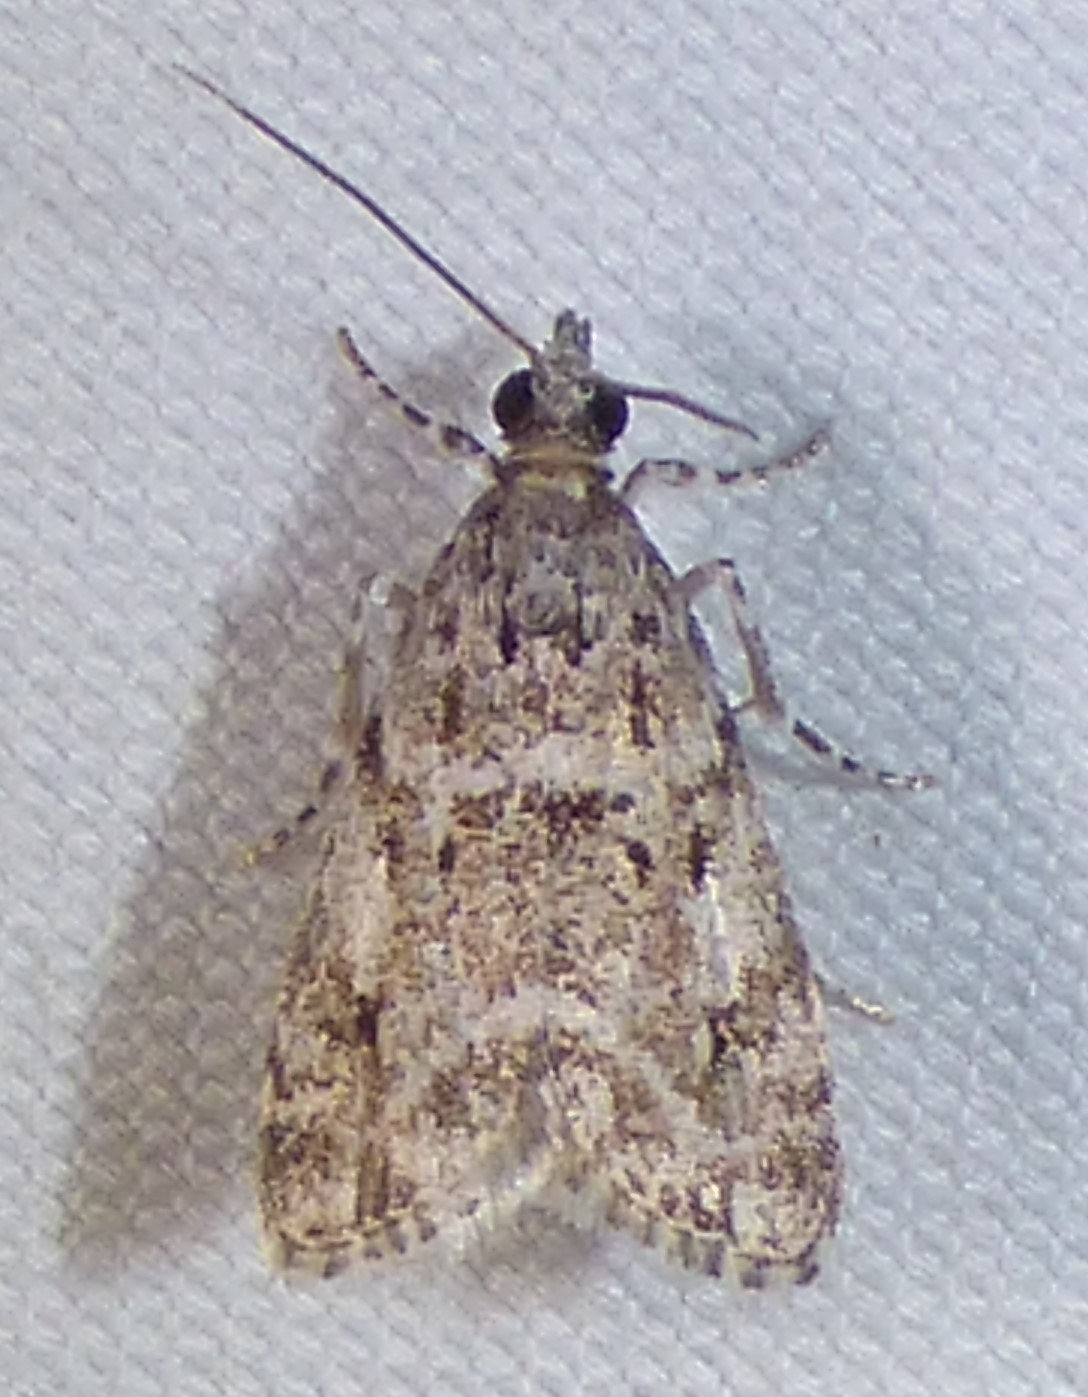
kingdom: Animalia
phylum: Arthropoda
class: Insecta
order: Lepidoptera
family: Crambidae
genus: Eudonia
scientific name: Eudonia heterosalis
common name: Mcdunnough's eudonia
